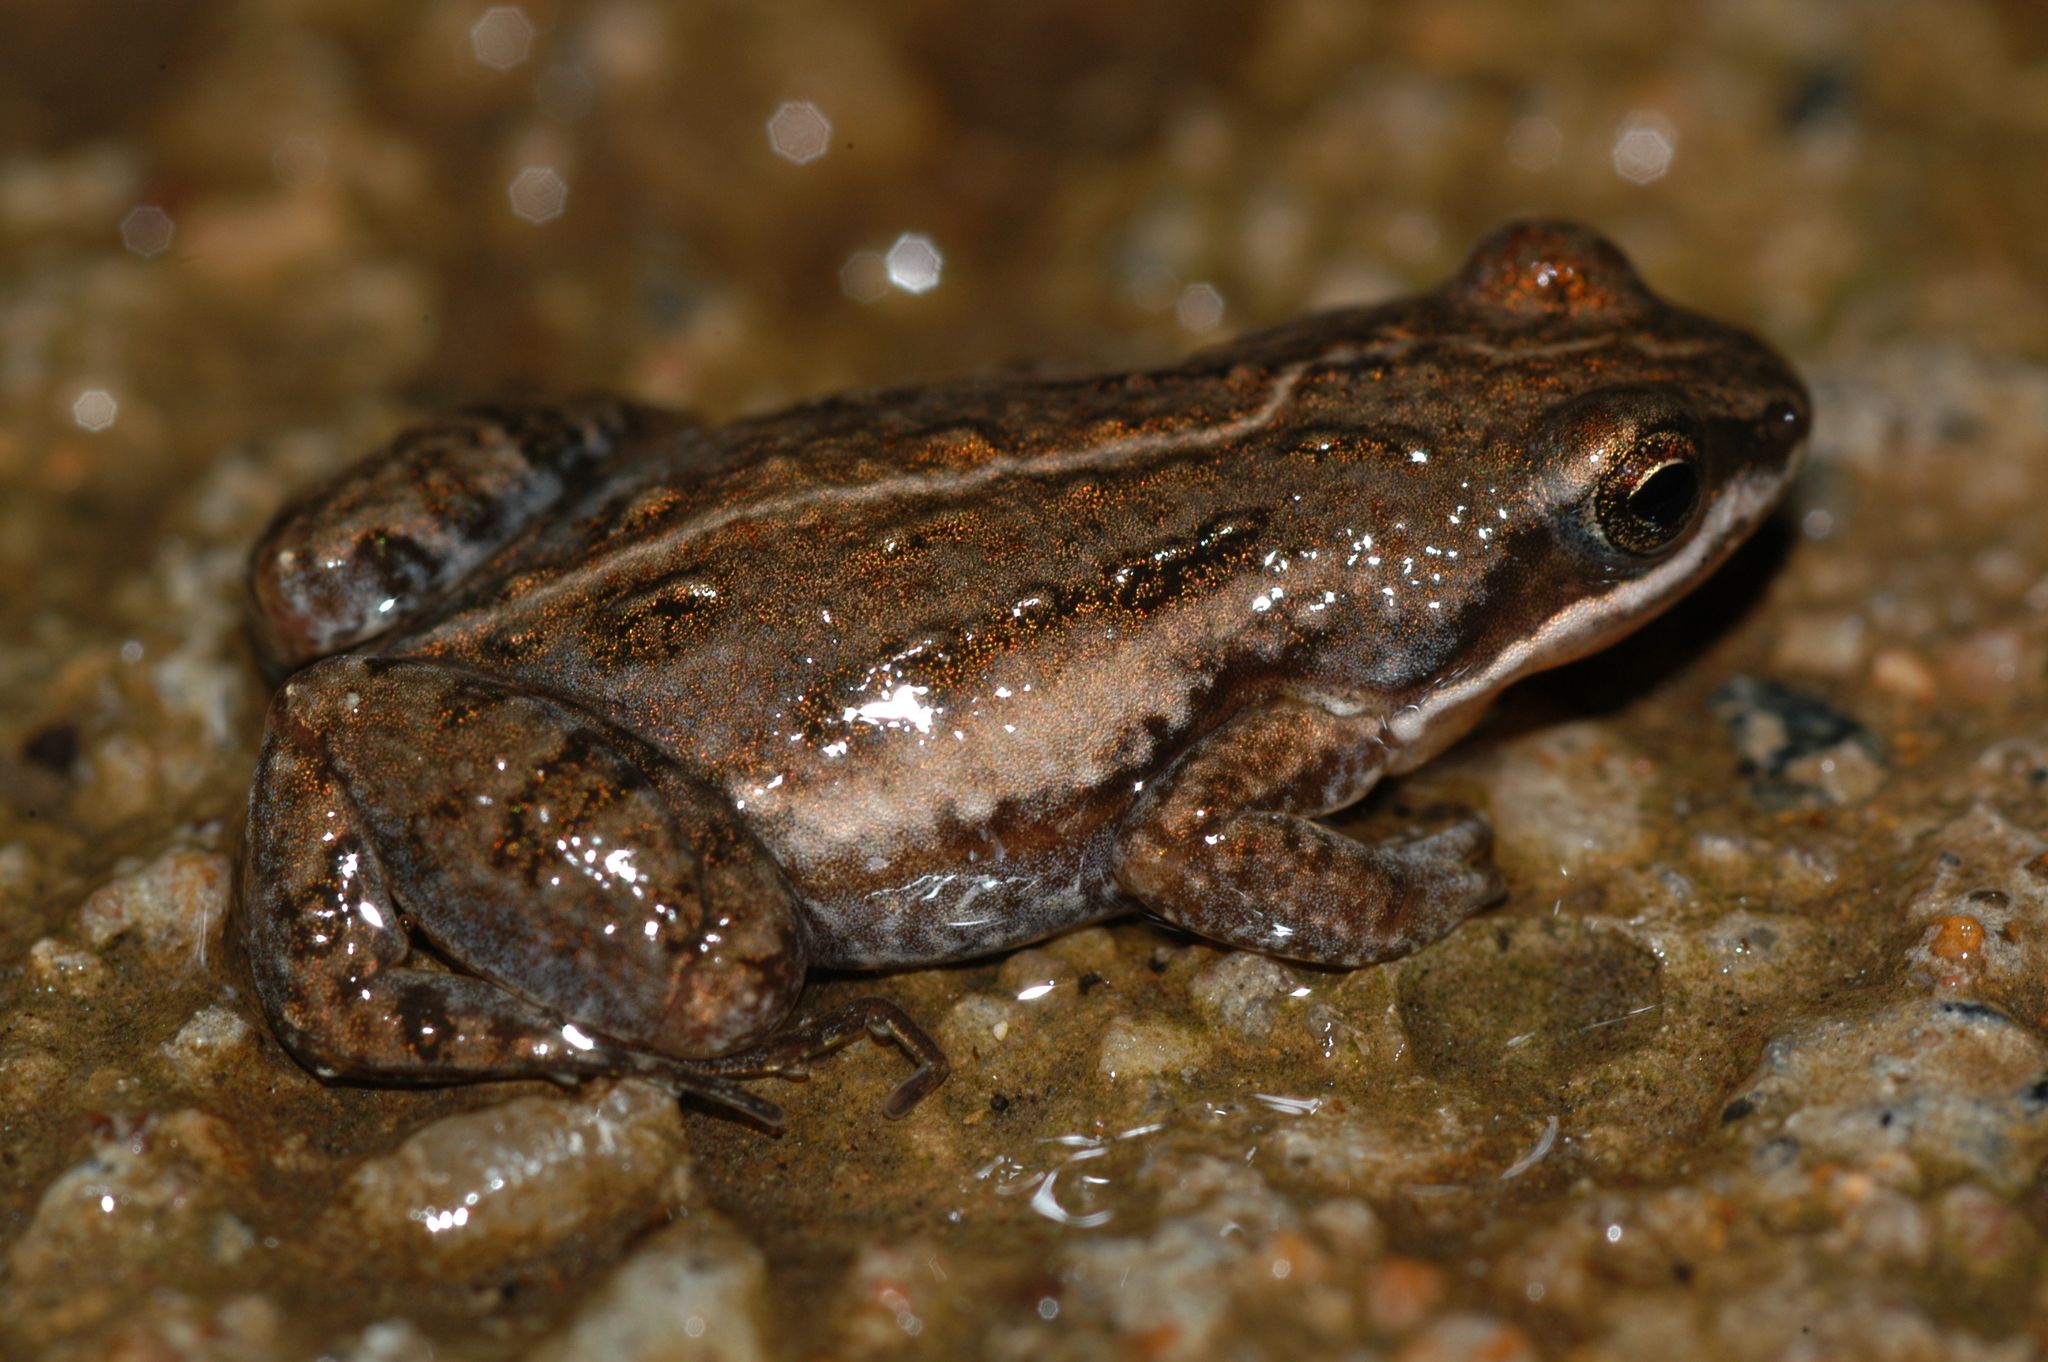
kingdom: Animalia
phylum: Chordata
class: Amphibia
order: Anura
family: Pyxicephalidae
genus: Cacosternum
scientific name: Cacosternum rhythmum
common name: Rhythmic dainty frog
